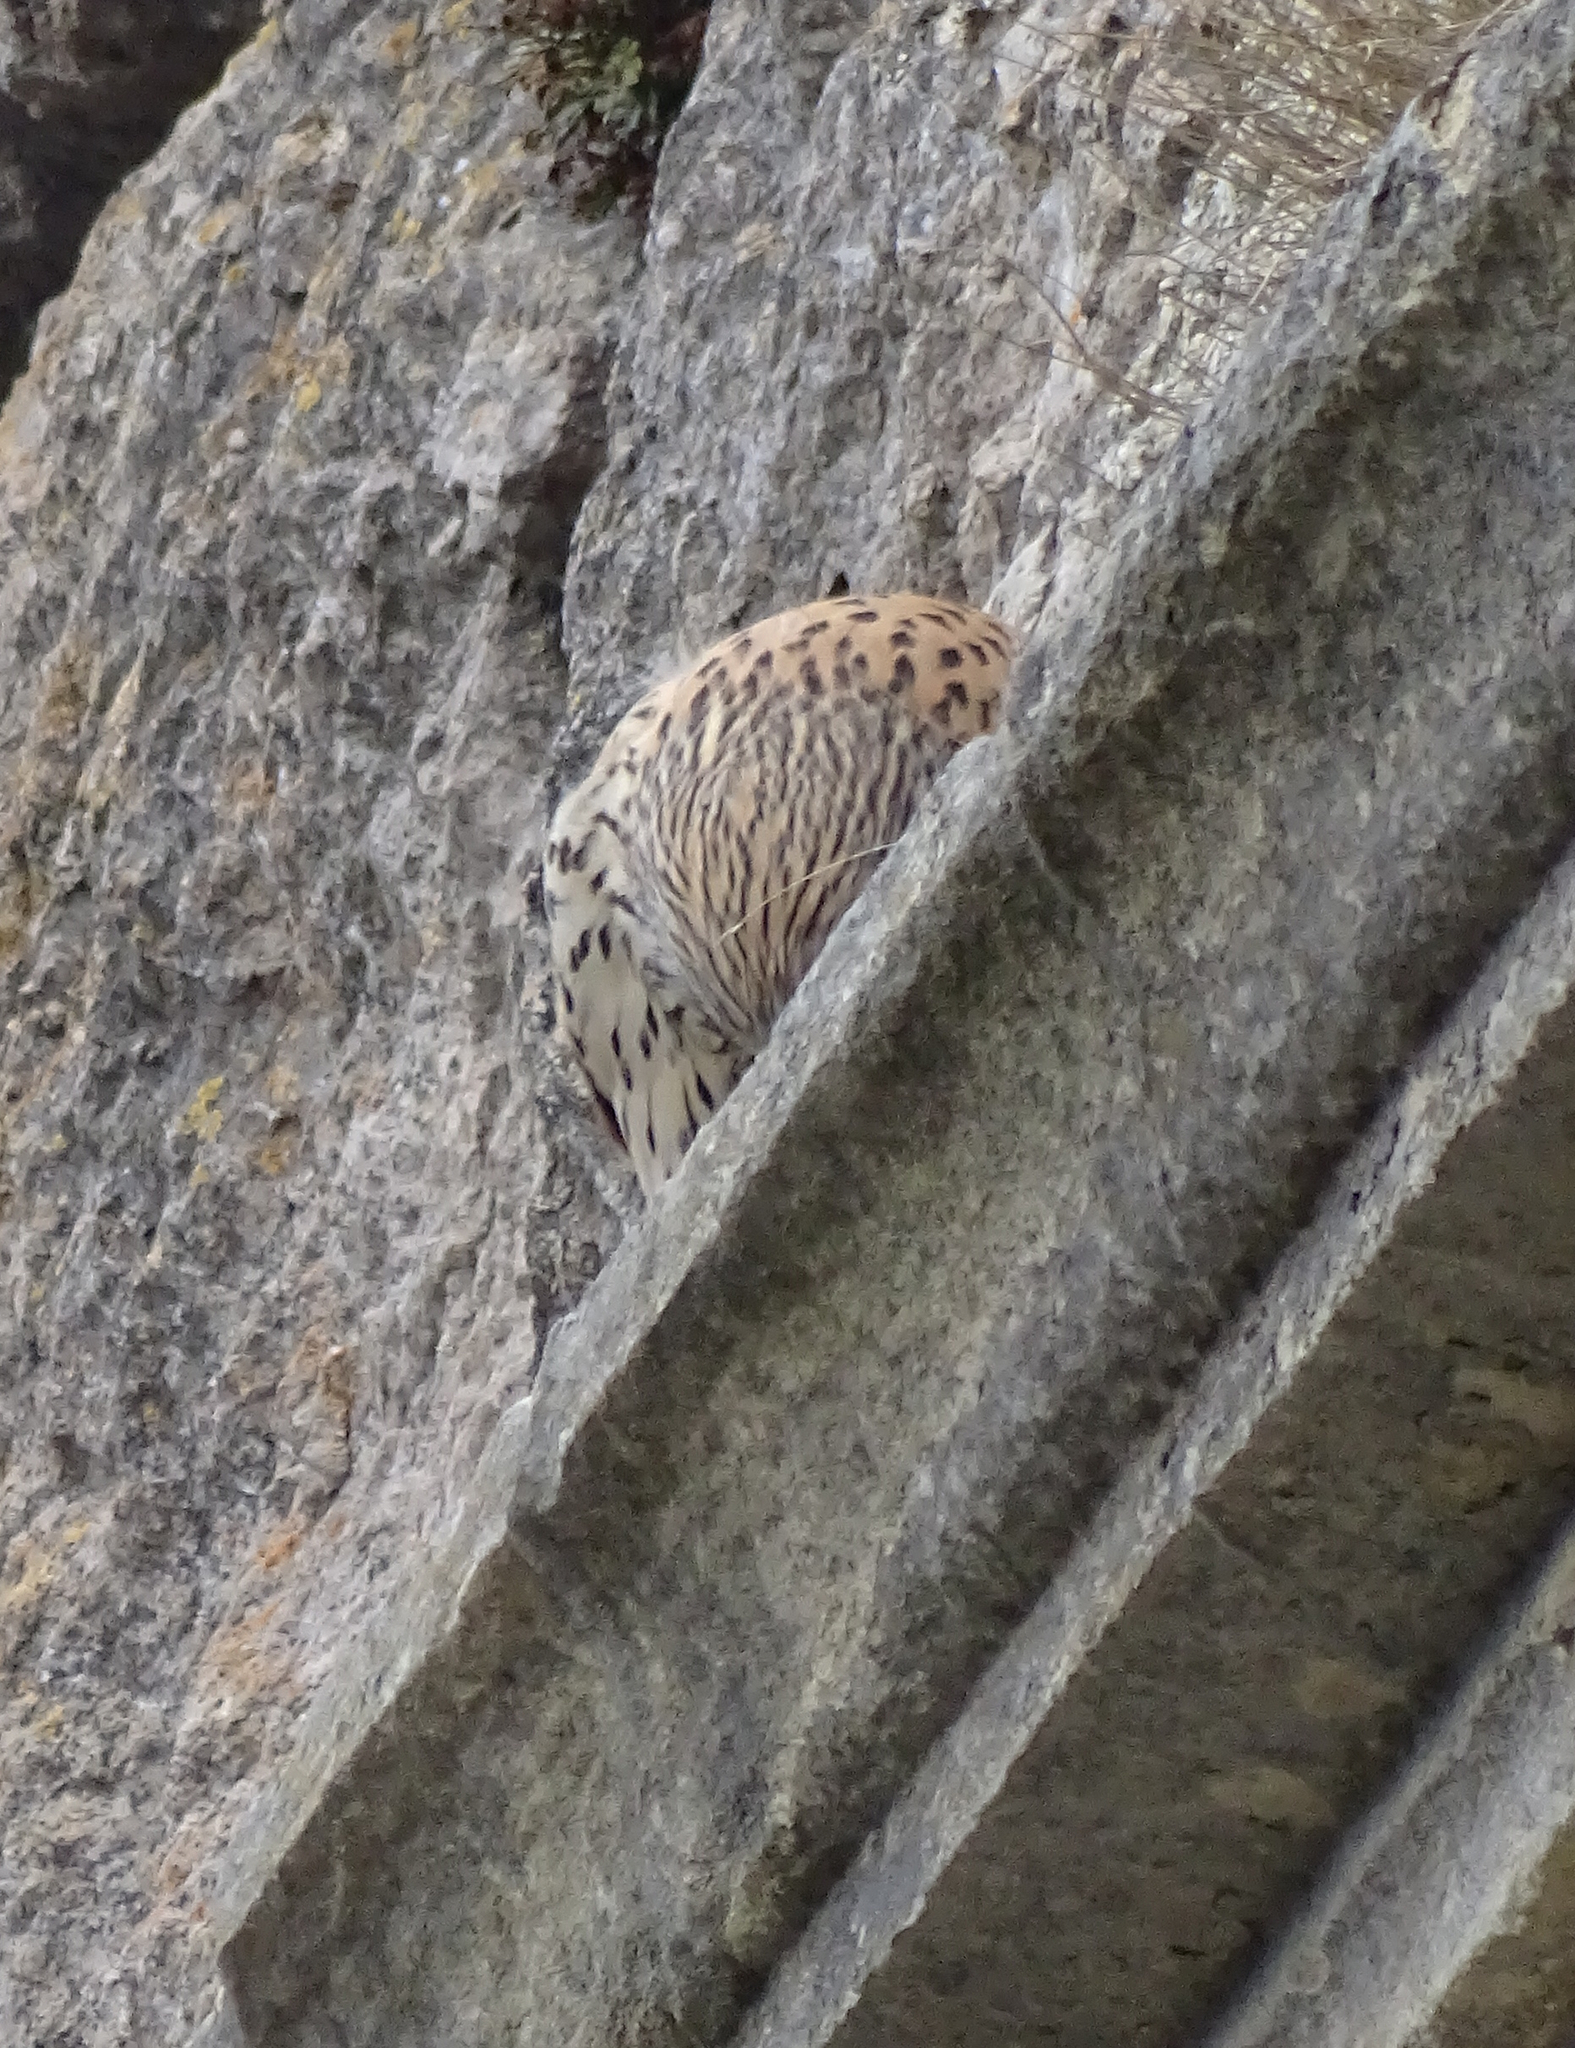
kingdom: Animalia
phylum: Chordata
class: Aves
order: Falconiformes
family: Falconidae
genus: Falco
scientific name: Falco tinnunculus
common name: Common kestrel
